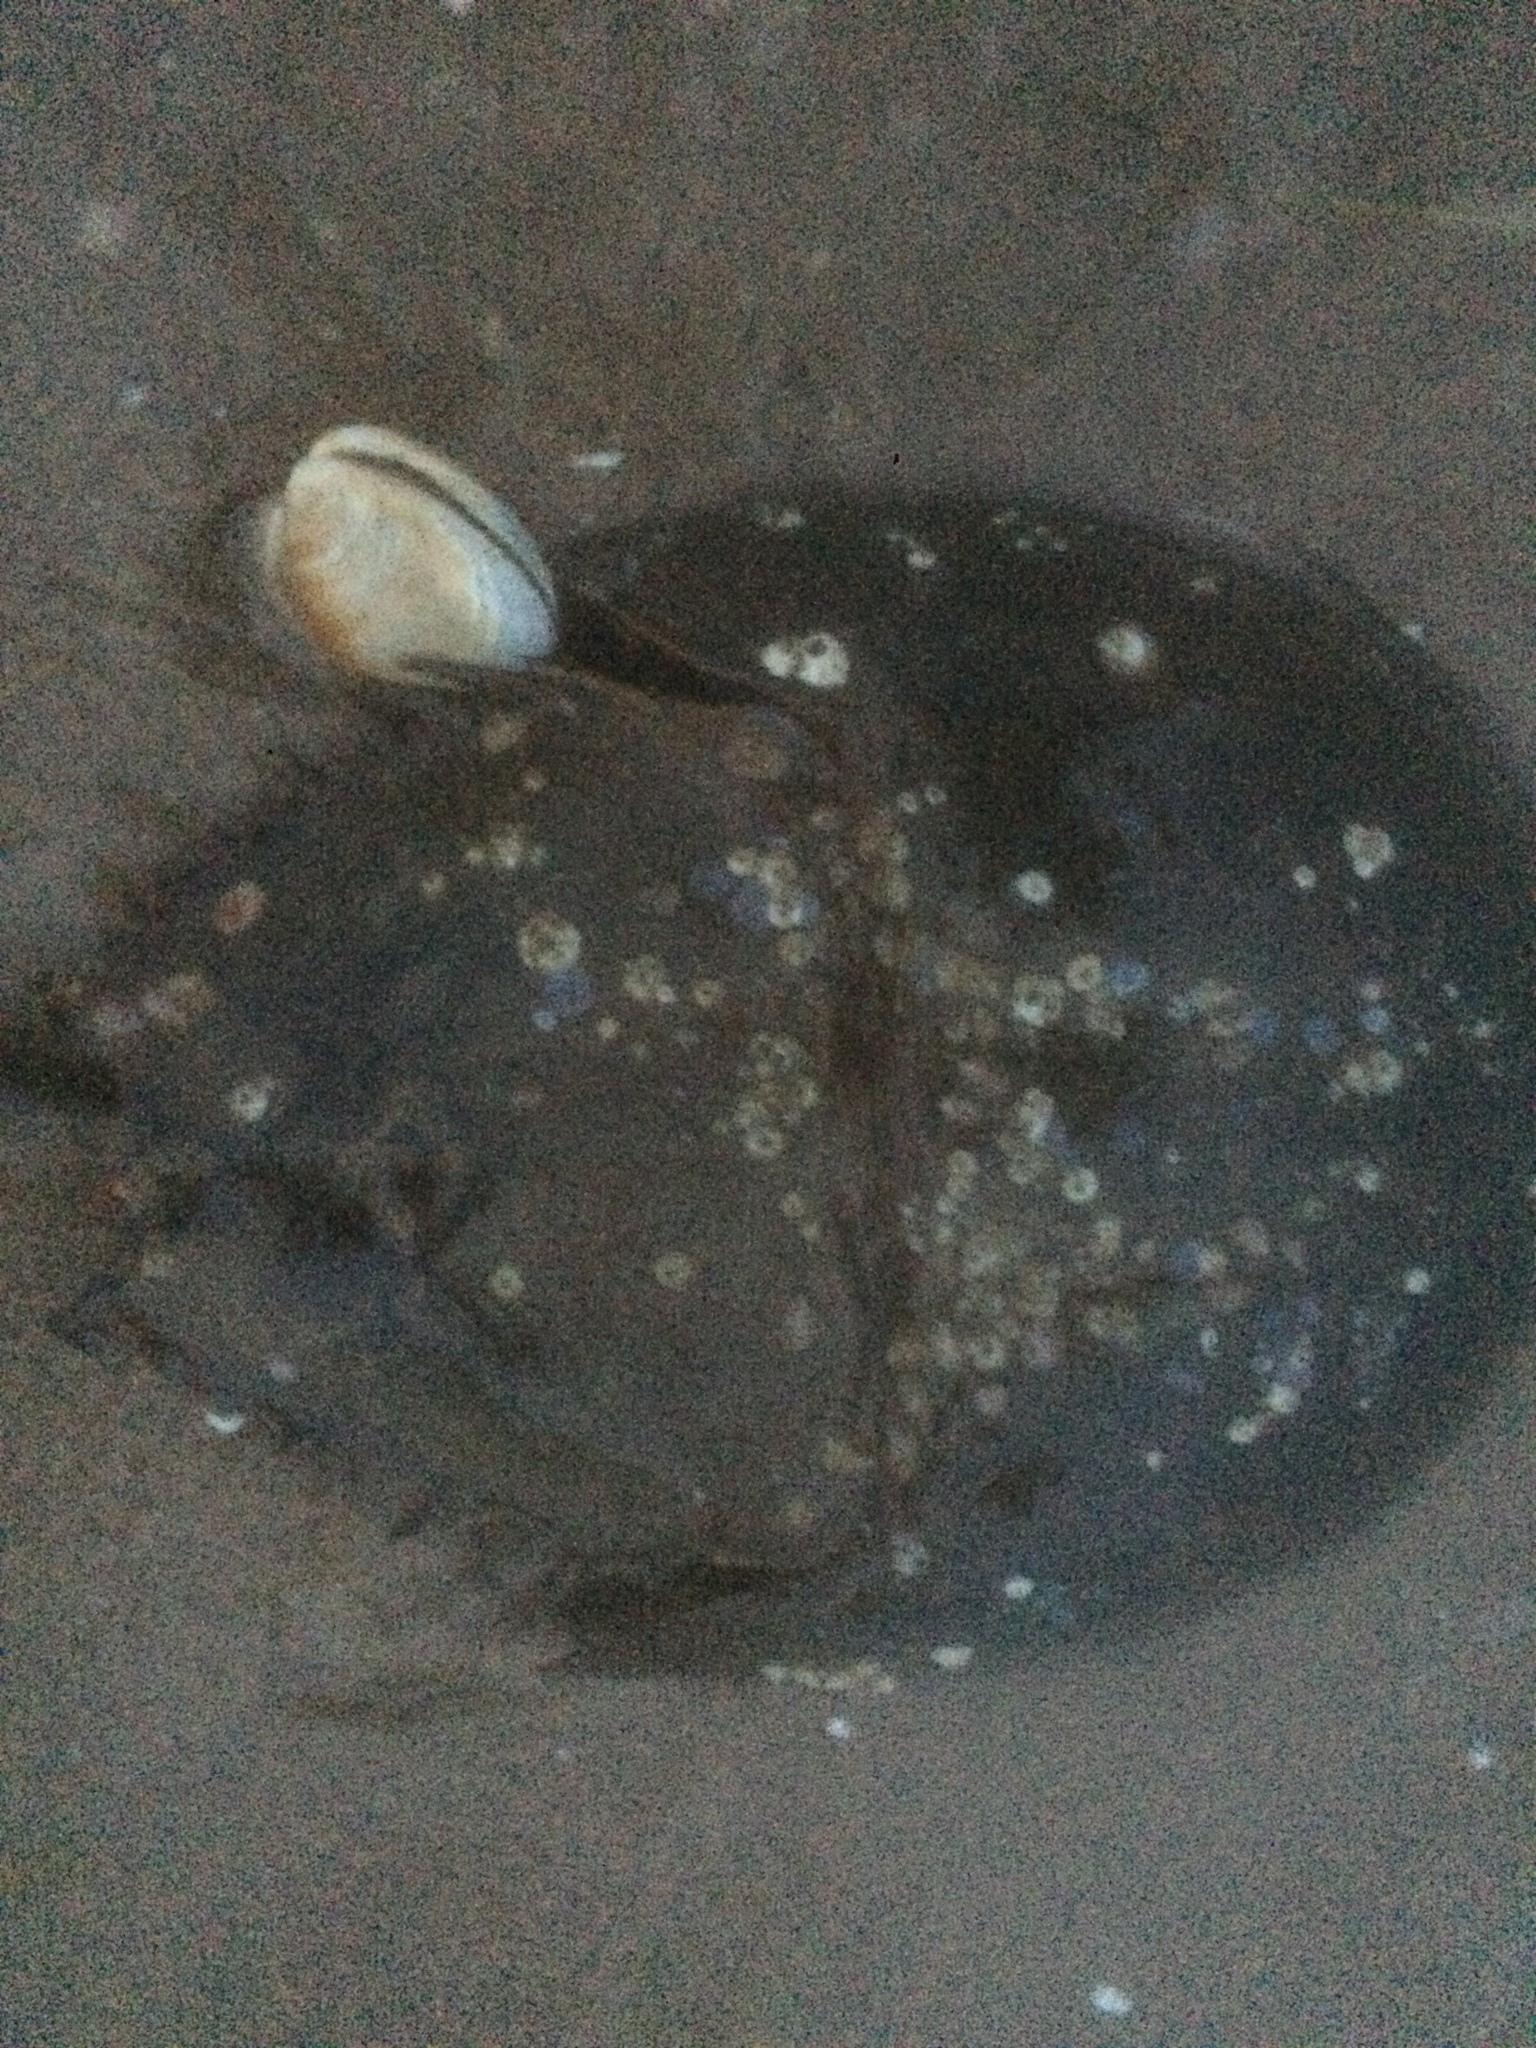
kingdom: Animalia
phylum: Arthropoda
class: Merostomata
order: Xiphosurida
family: Limulidae
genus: Limulus
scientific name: Limulus polyphemus
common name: Horseshoe crab
